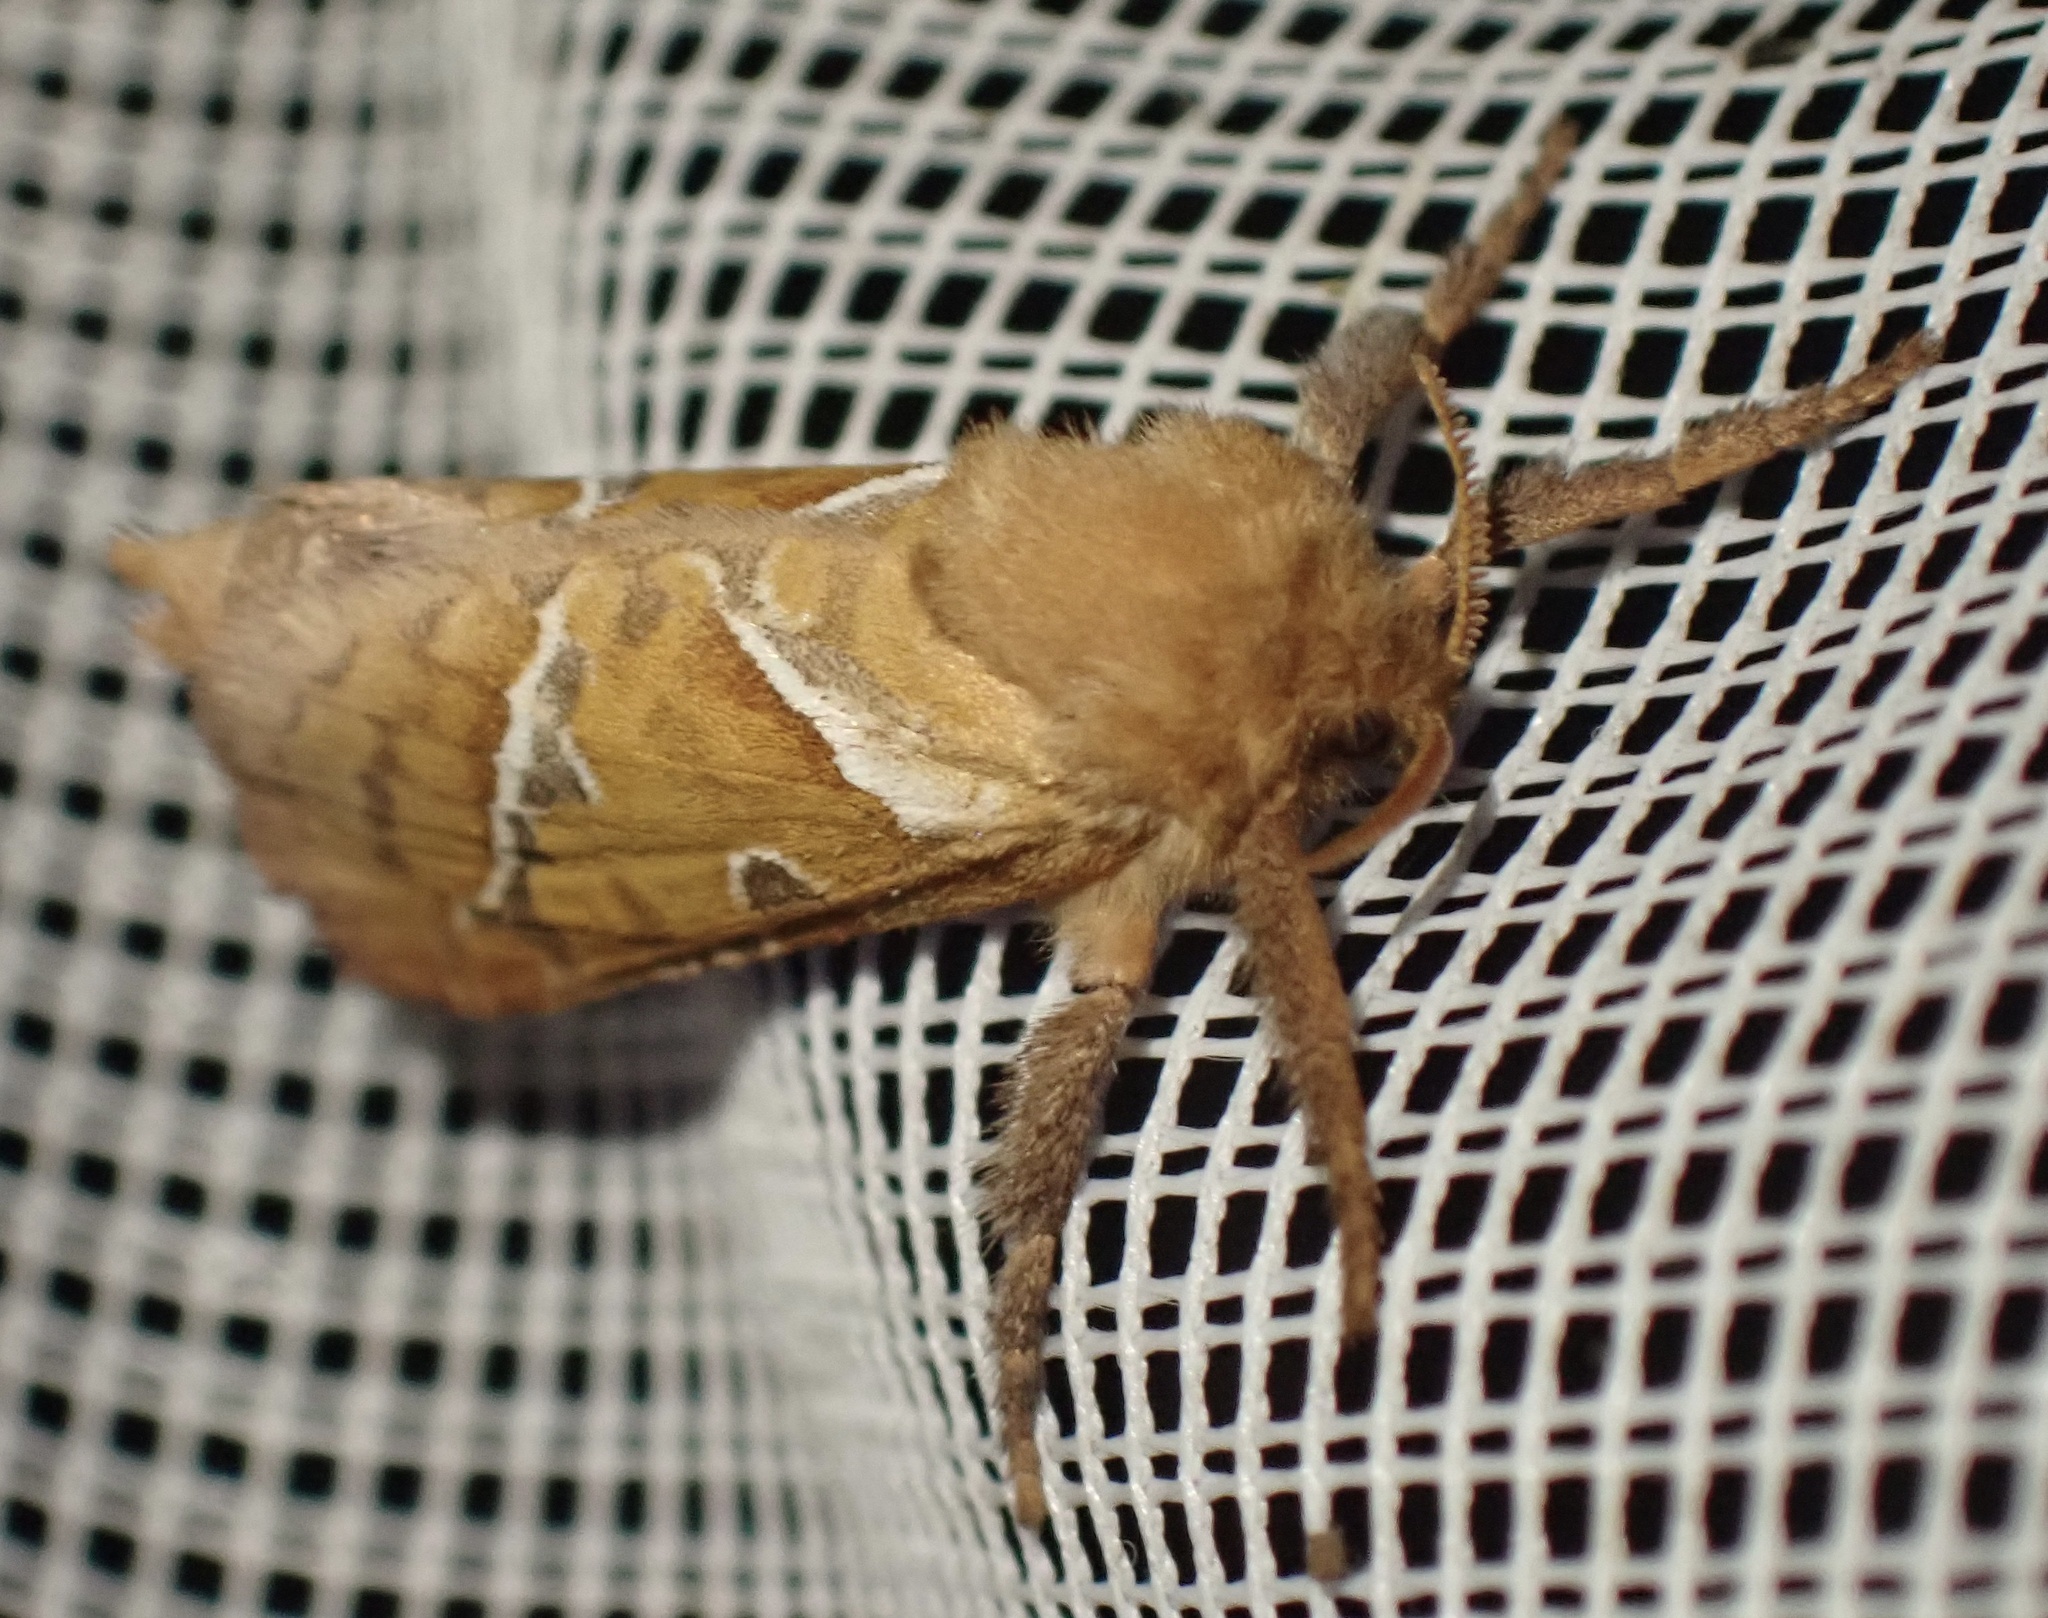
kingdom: Animalia
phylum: Arthropoda
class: Insecta
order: Lepidoptera
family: Hepialidae
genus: Triodia
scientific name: Triodia sylvina
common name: Orange swift
